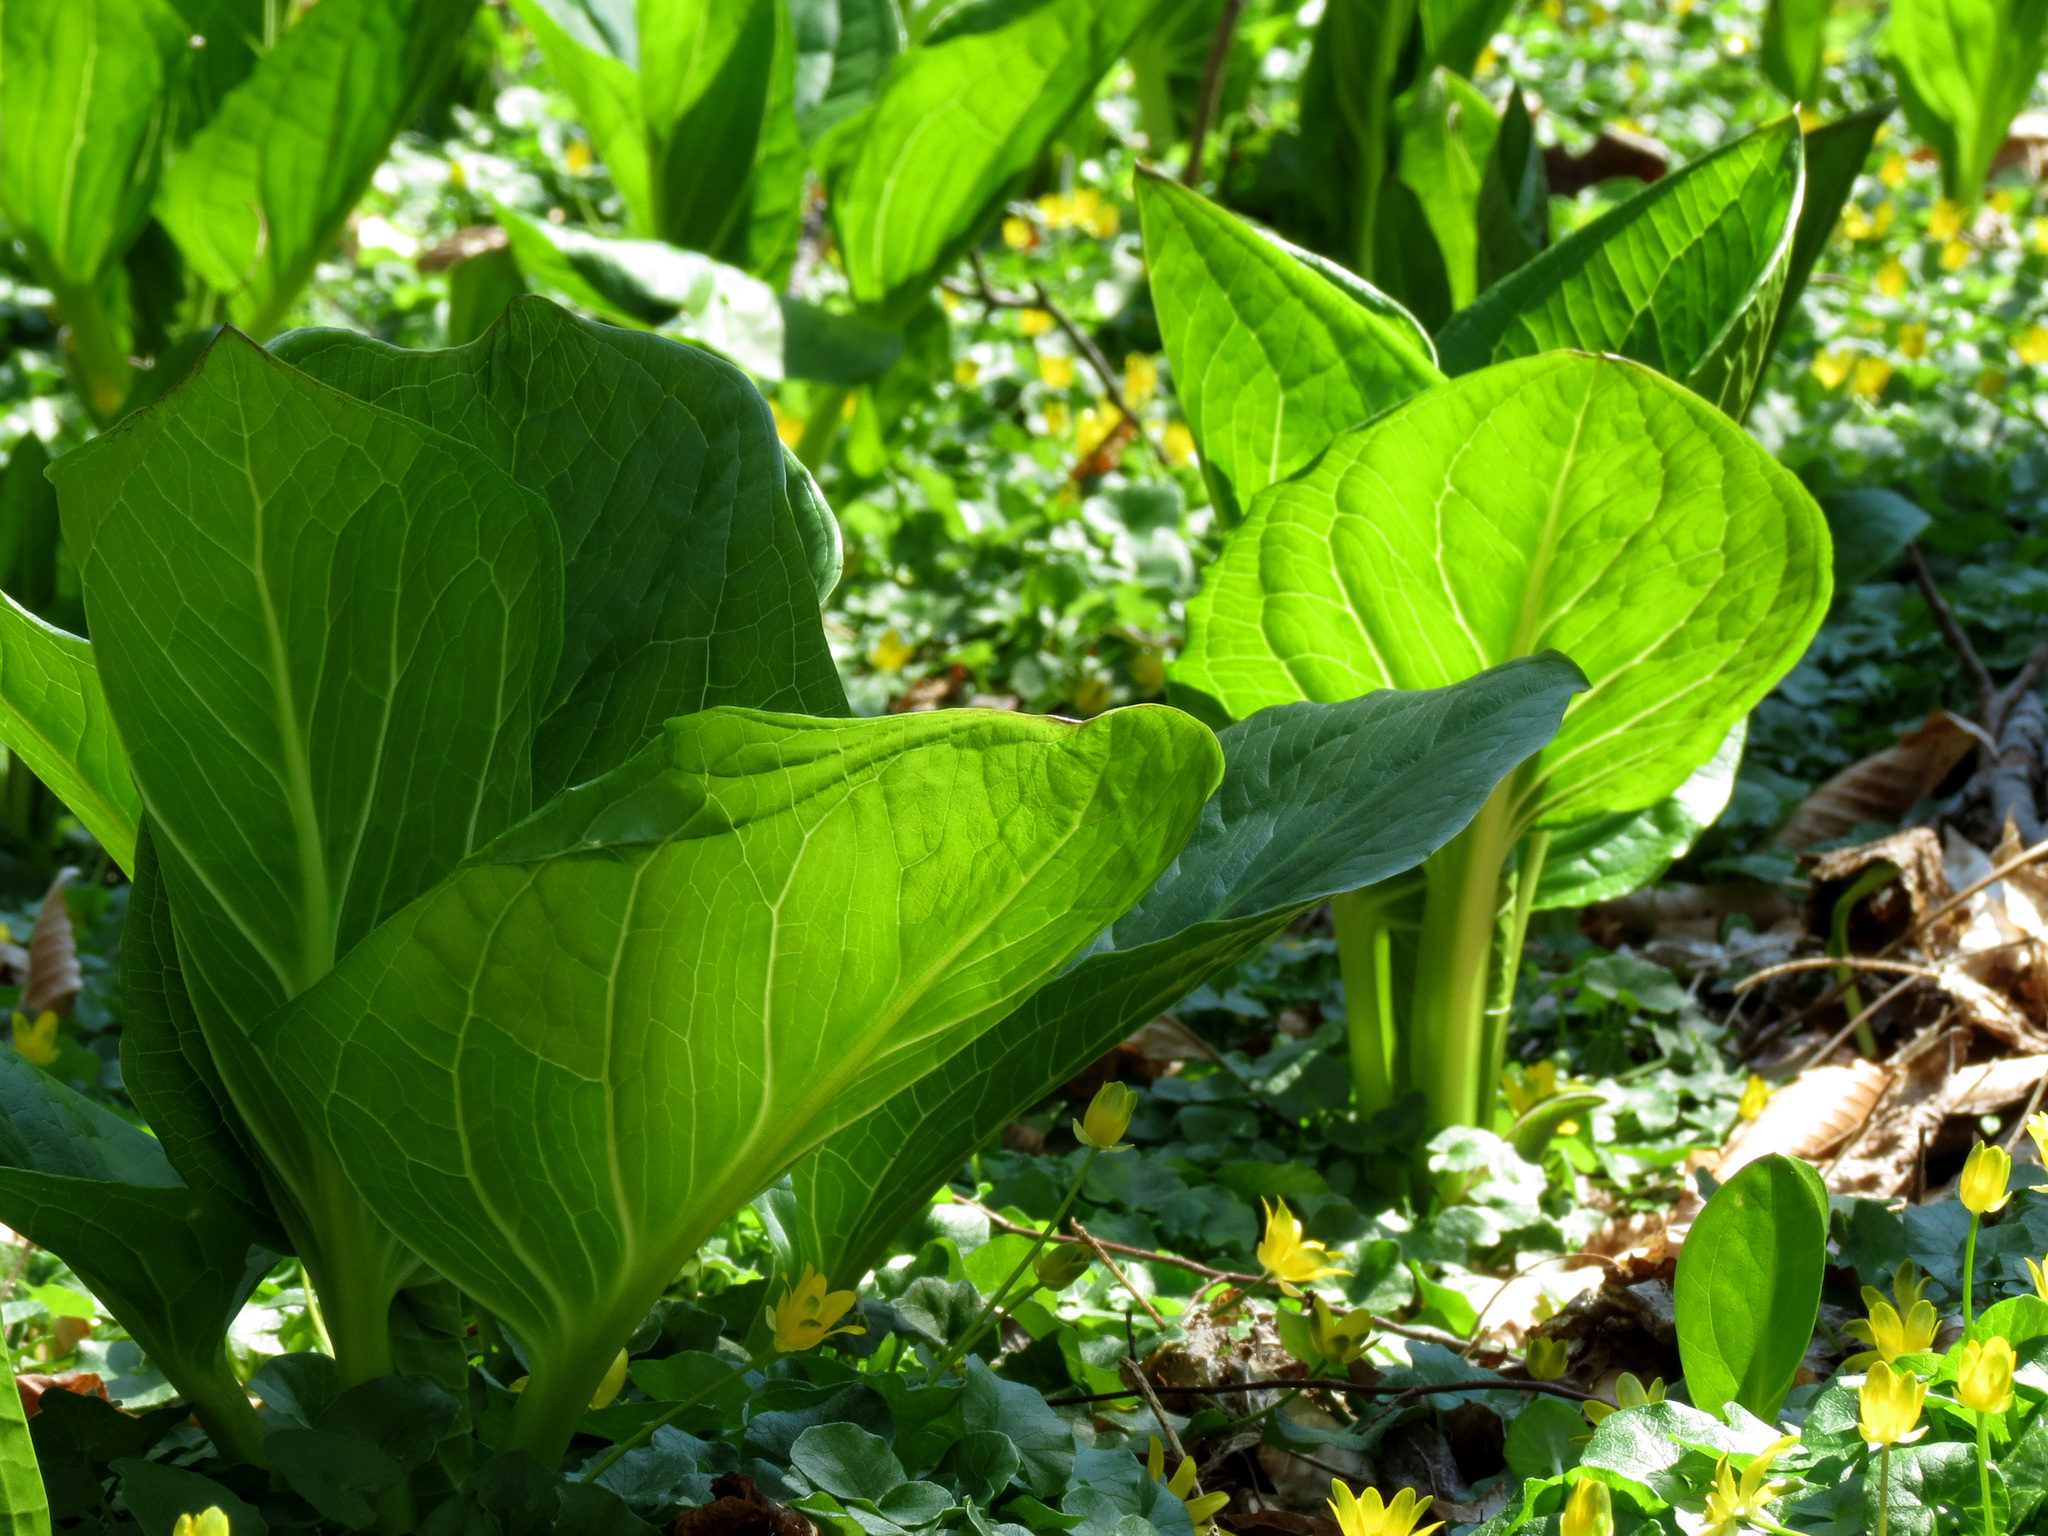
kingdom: Plantae
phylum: Tracheophyta
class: Liliopsida
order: Alismatales
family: Araceae
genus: Symplocarpus
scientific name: Symplocarpus foetidus
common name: Eastern skunk cabbage
